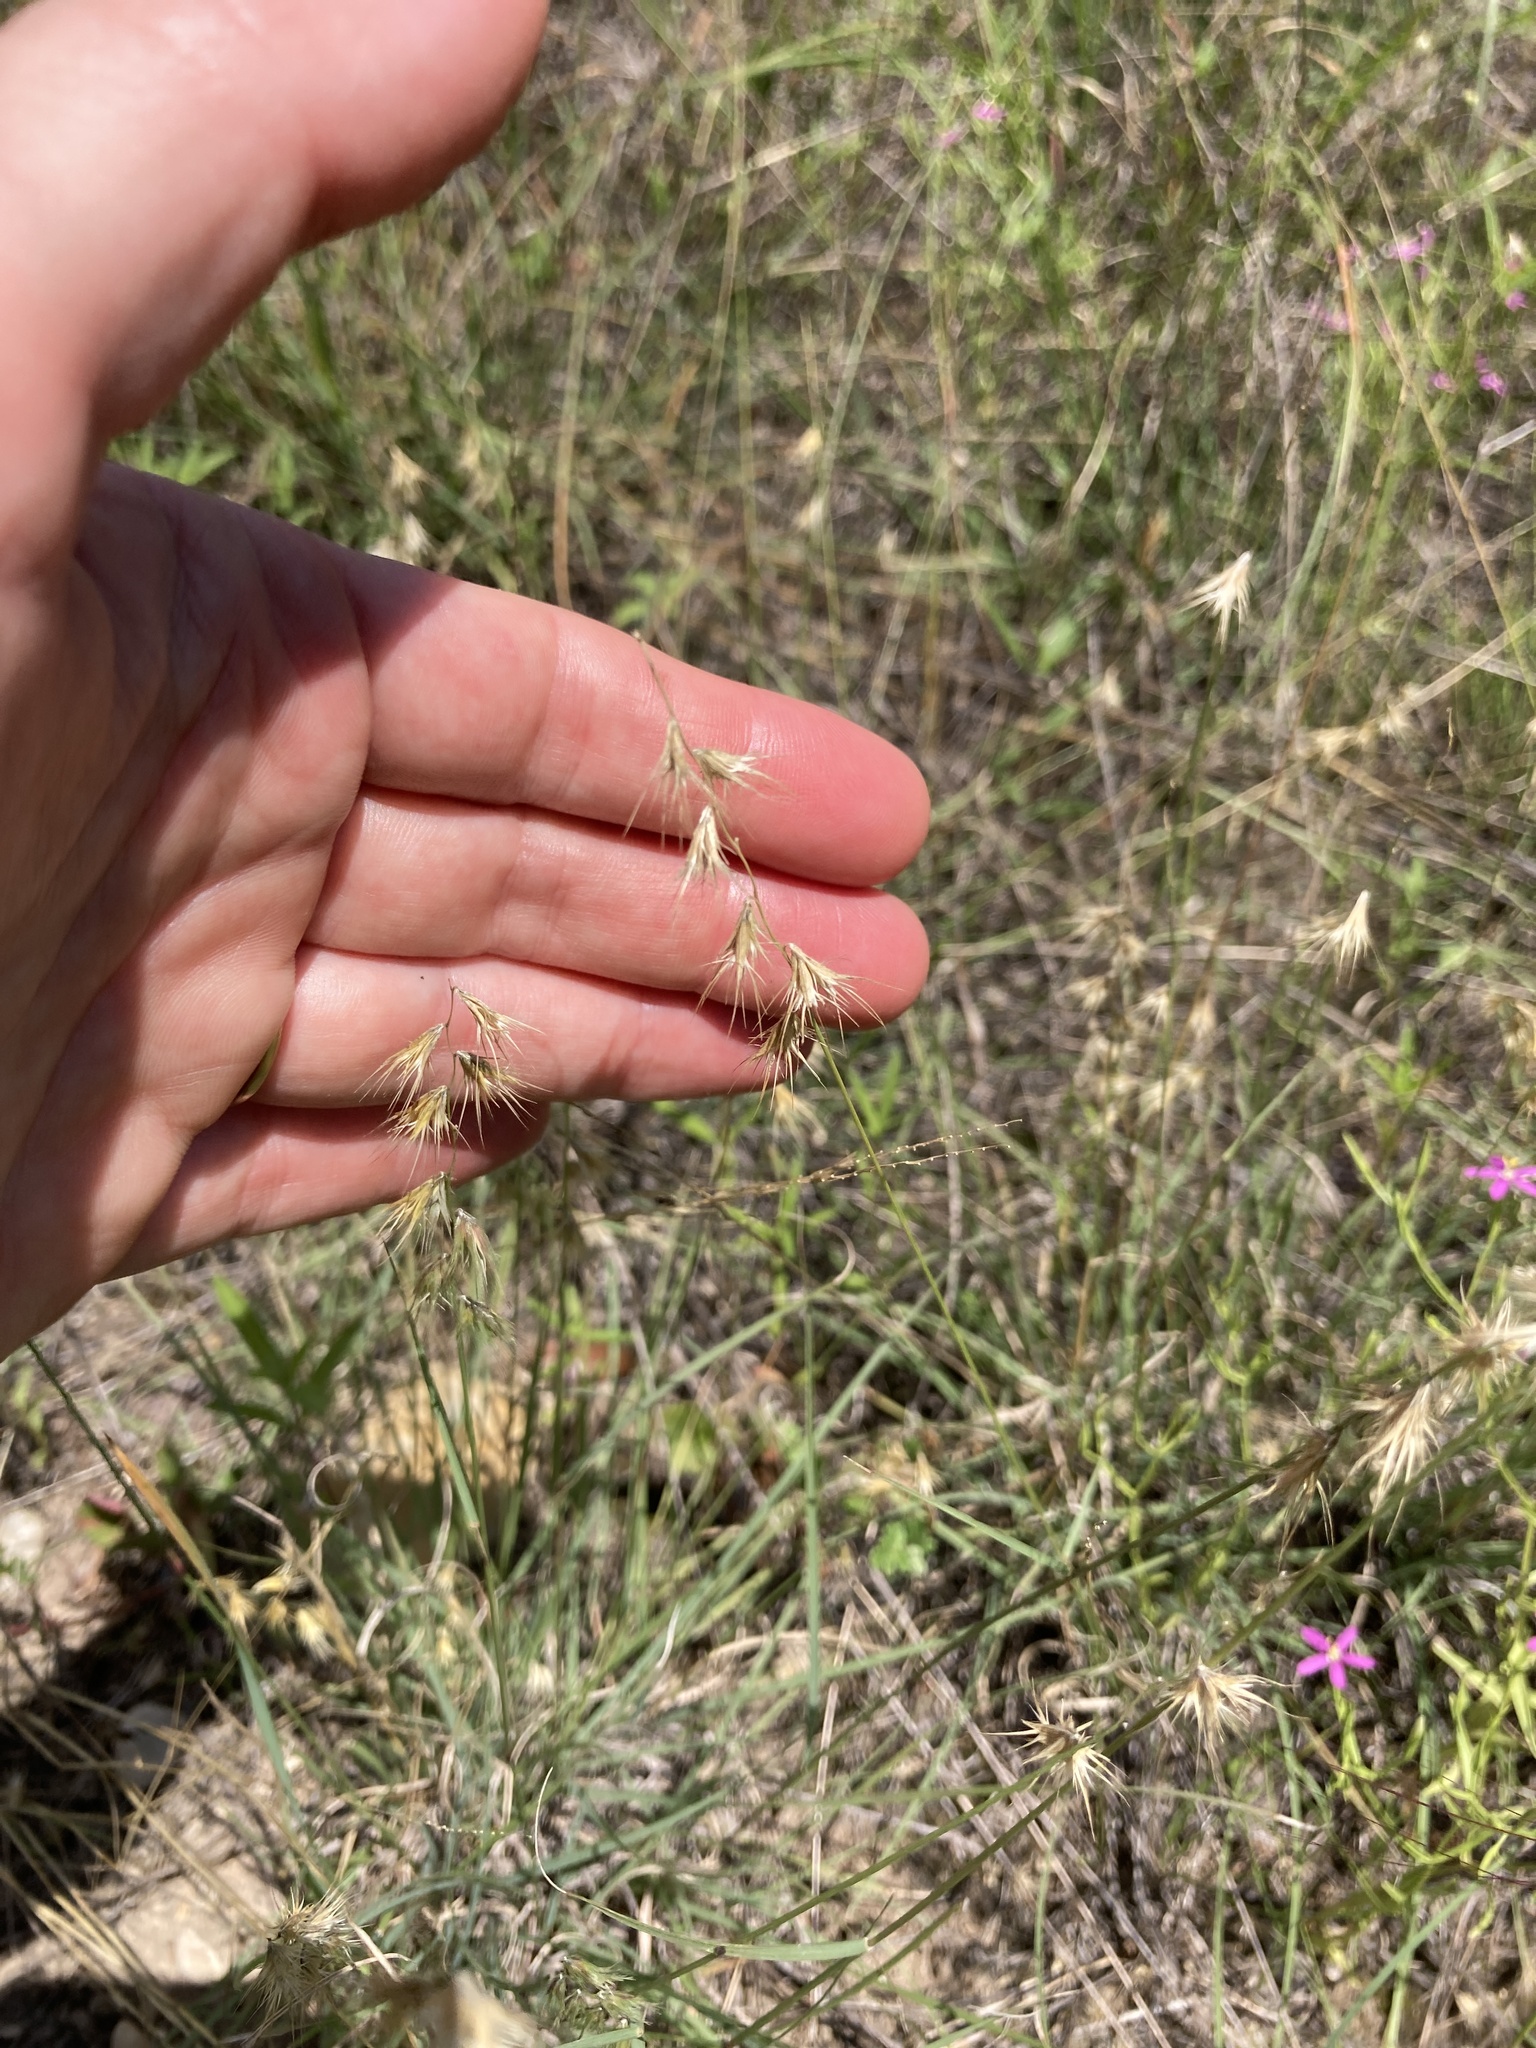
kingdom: Plantae
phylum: Tracheophyta
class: Liliopsida
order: Poales
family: Poaceae
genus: Bouteloua
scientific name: Bouteloua rigidiseta
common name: Texas grama
